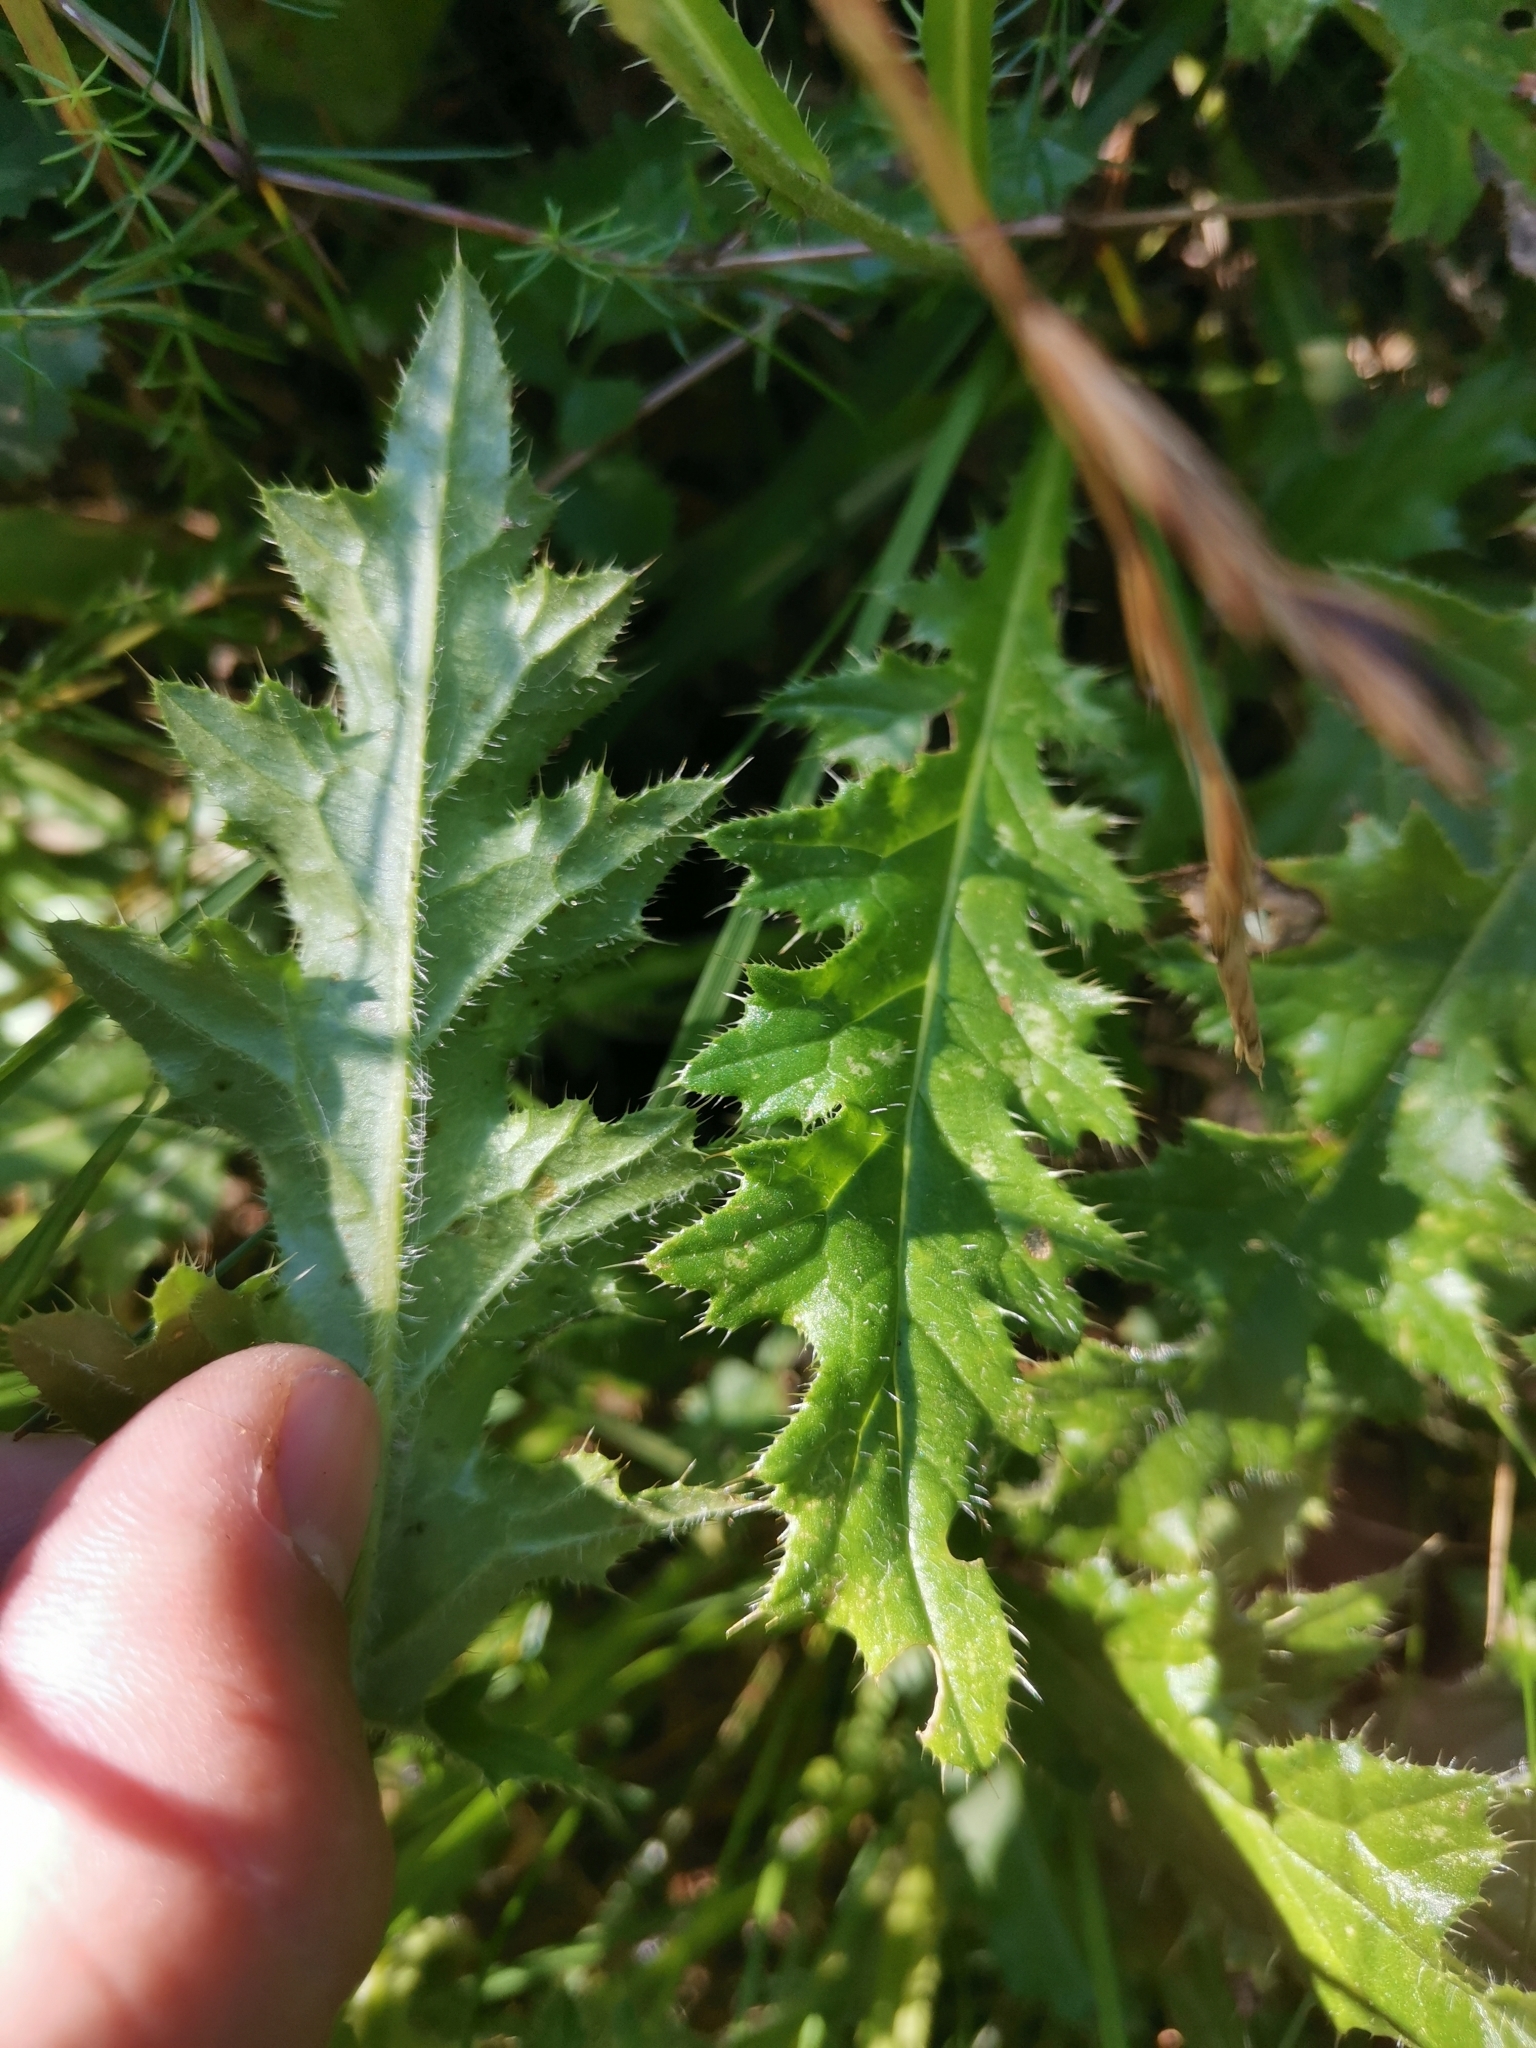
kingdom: Plantae
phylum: Tracheophyta
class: Magnoliopsida
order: Asterales
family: Asteraceae
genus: Cirsium
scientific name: Cirsium rivulare
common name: Brook thistle
